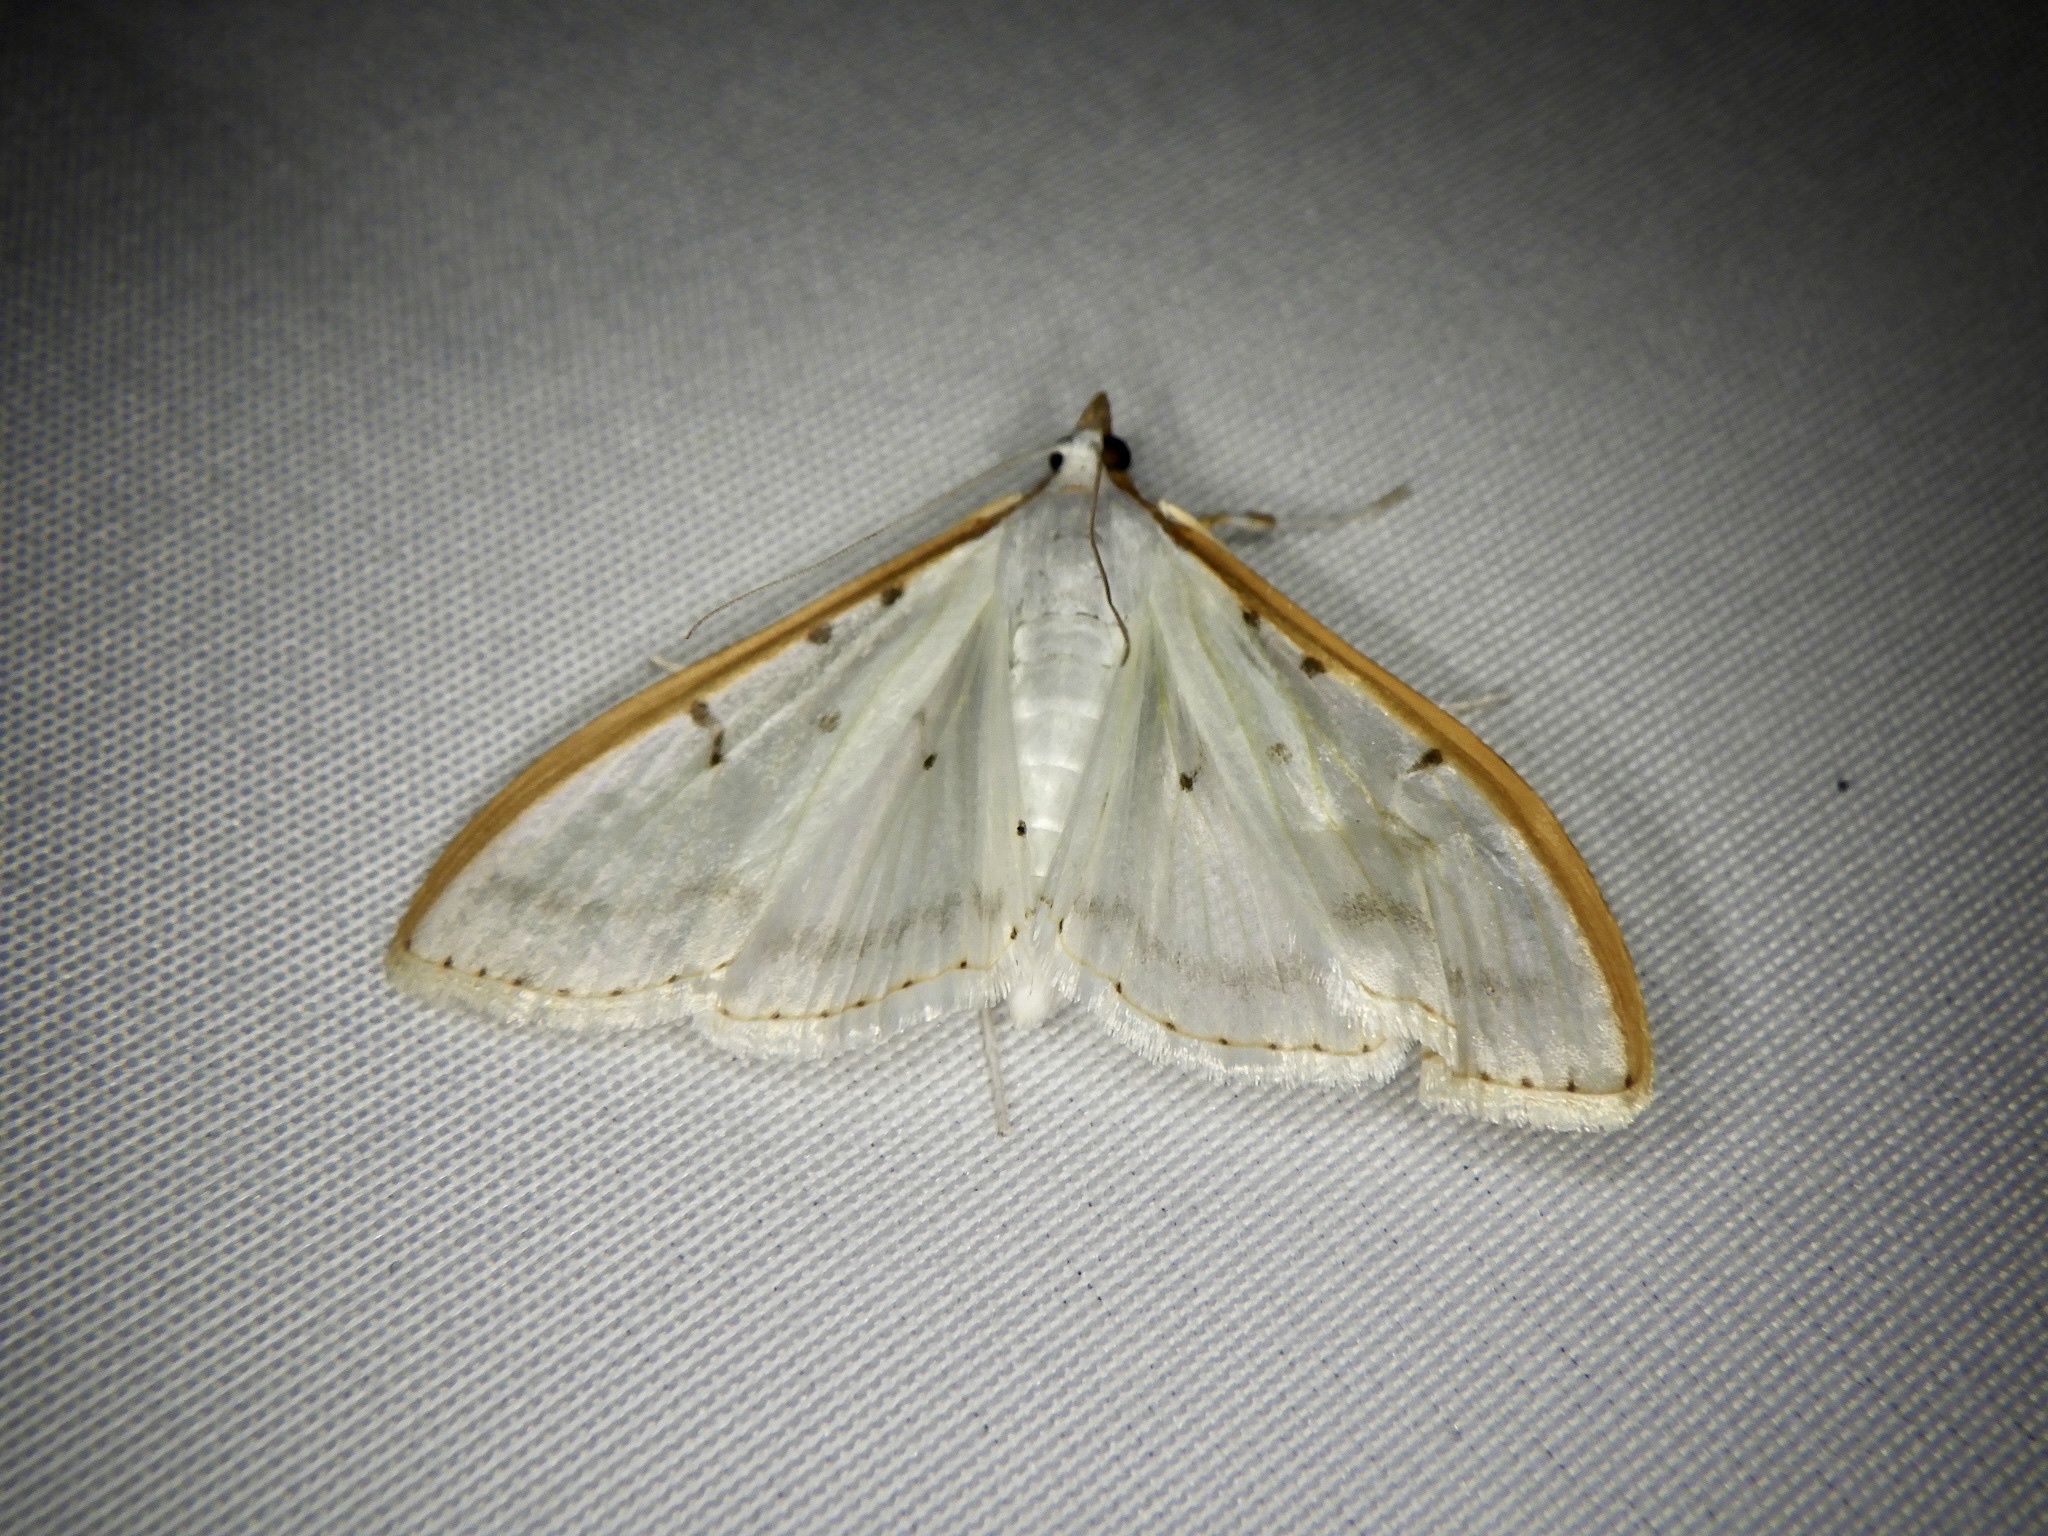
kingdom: Animalia
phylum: Arthropoda
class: Insecta
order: Lepidoptera
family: Crambidae
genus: Palpita
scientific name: Palpita nigropunctalis
